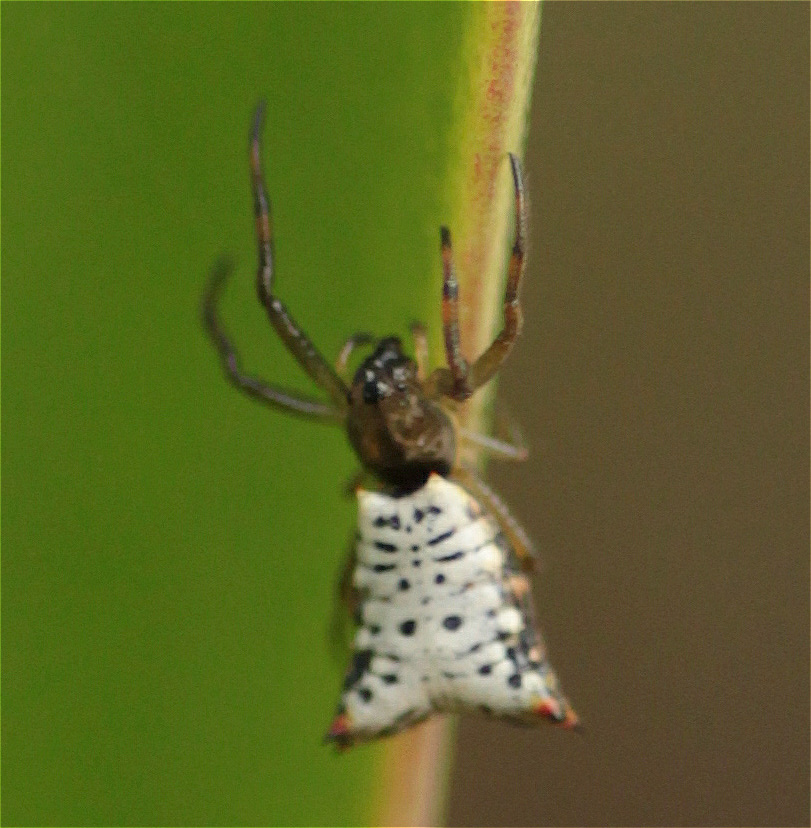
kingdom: Animalia
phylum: Arthropoda
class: Arachnida
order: Araneae
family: Araneidae
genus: Micrathena
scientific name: Micrathena lucasi
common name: Orb weavers
